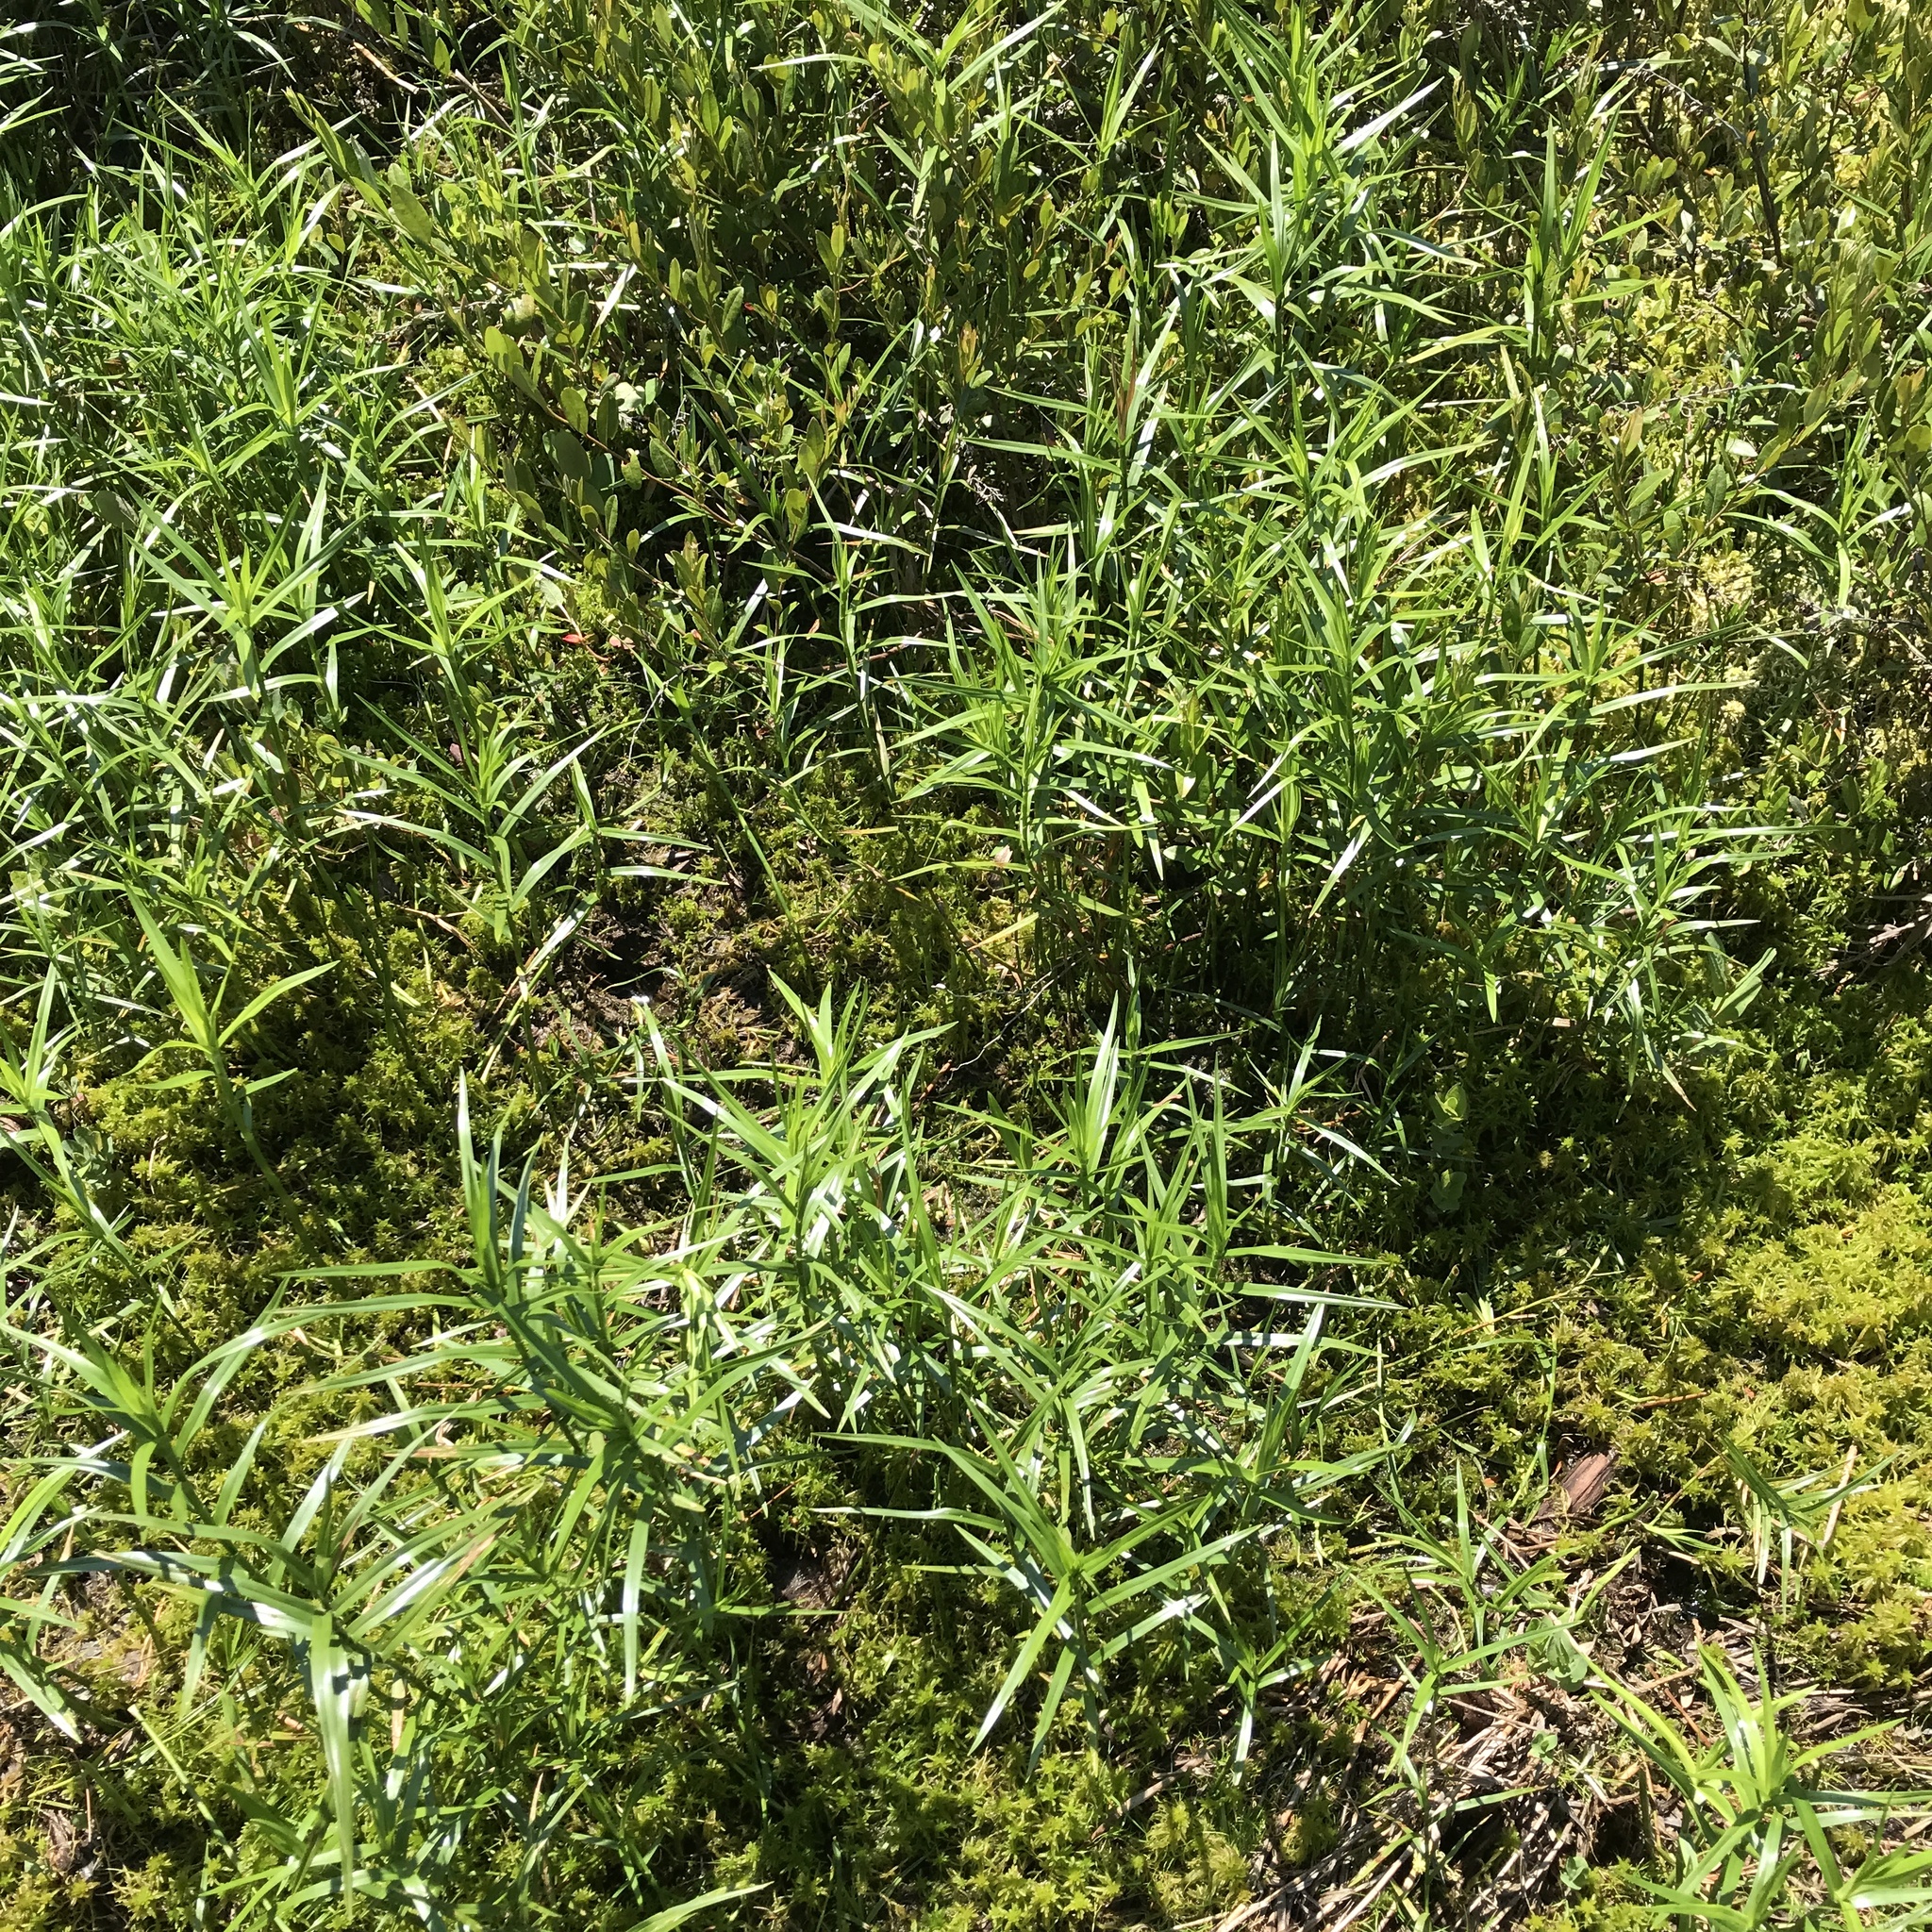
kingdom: Plantae
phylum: Tracheophyta
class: Liliopsida
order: Poales
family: Cyperaceae
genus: Dulichium
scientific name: Dulichium arundinaceum
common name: Three-way sedge
